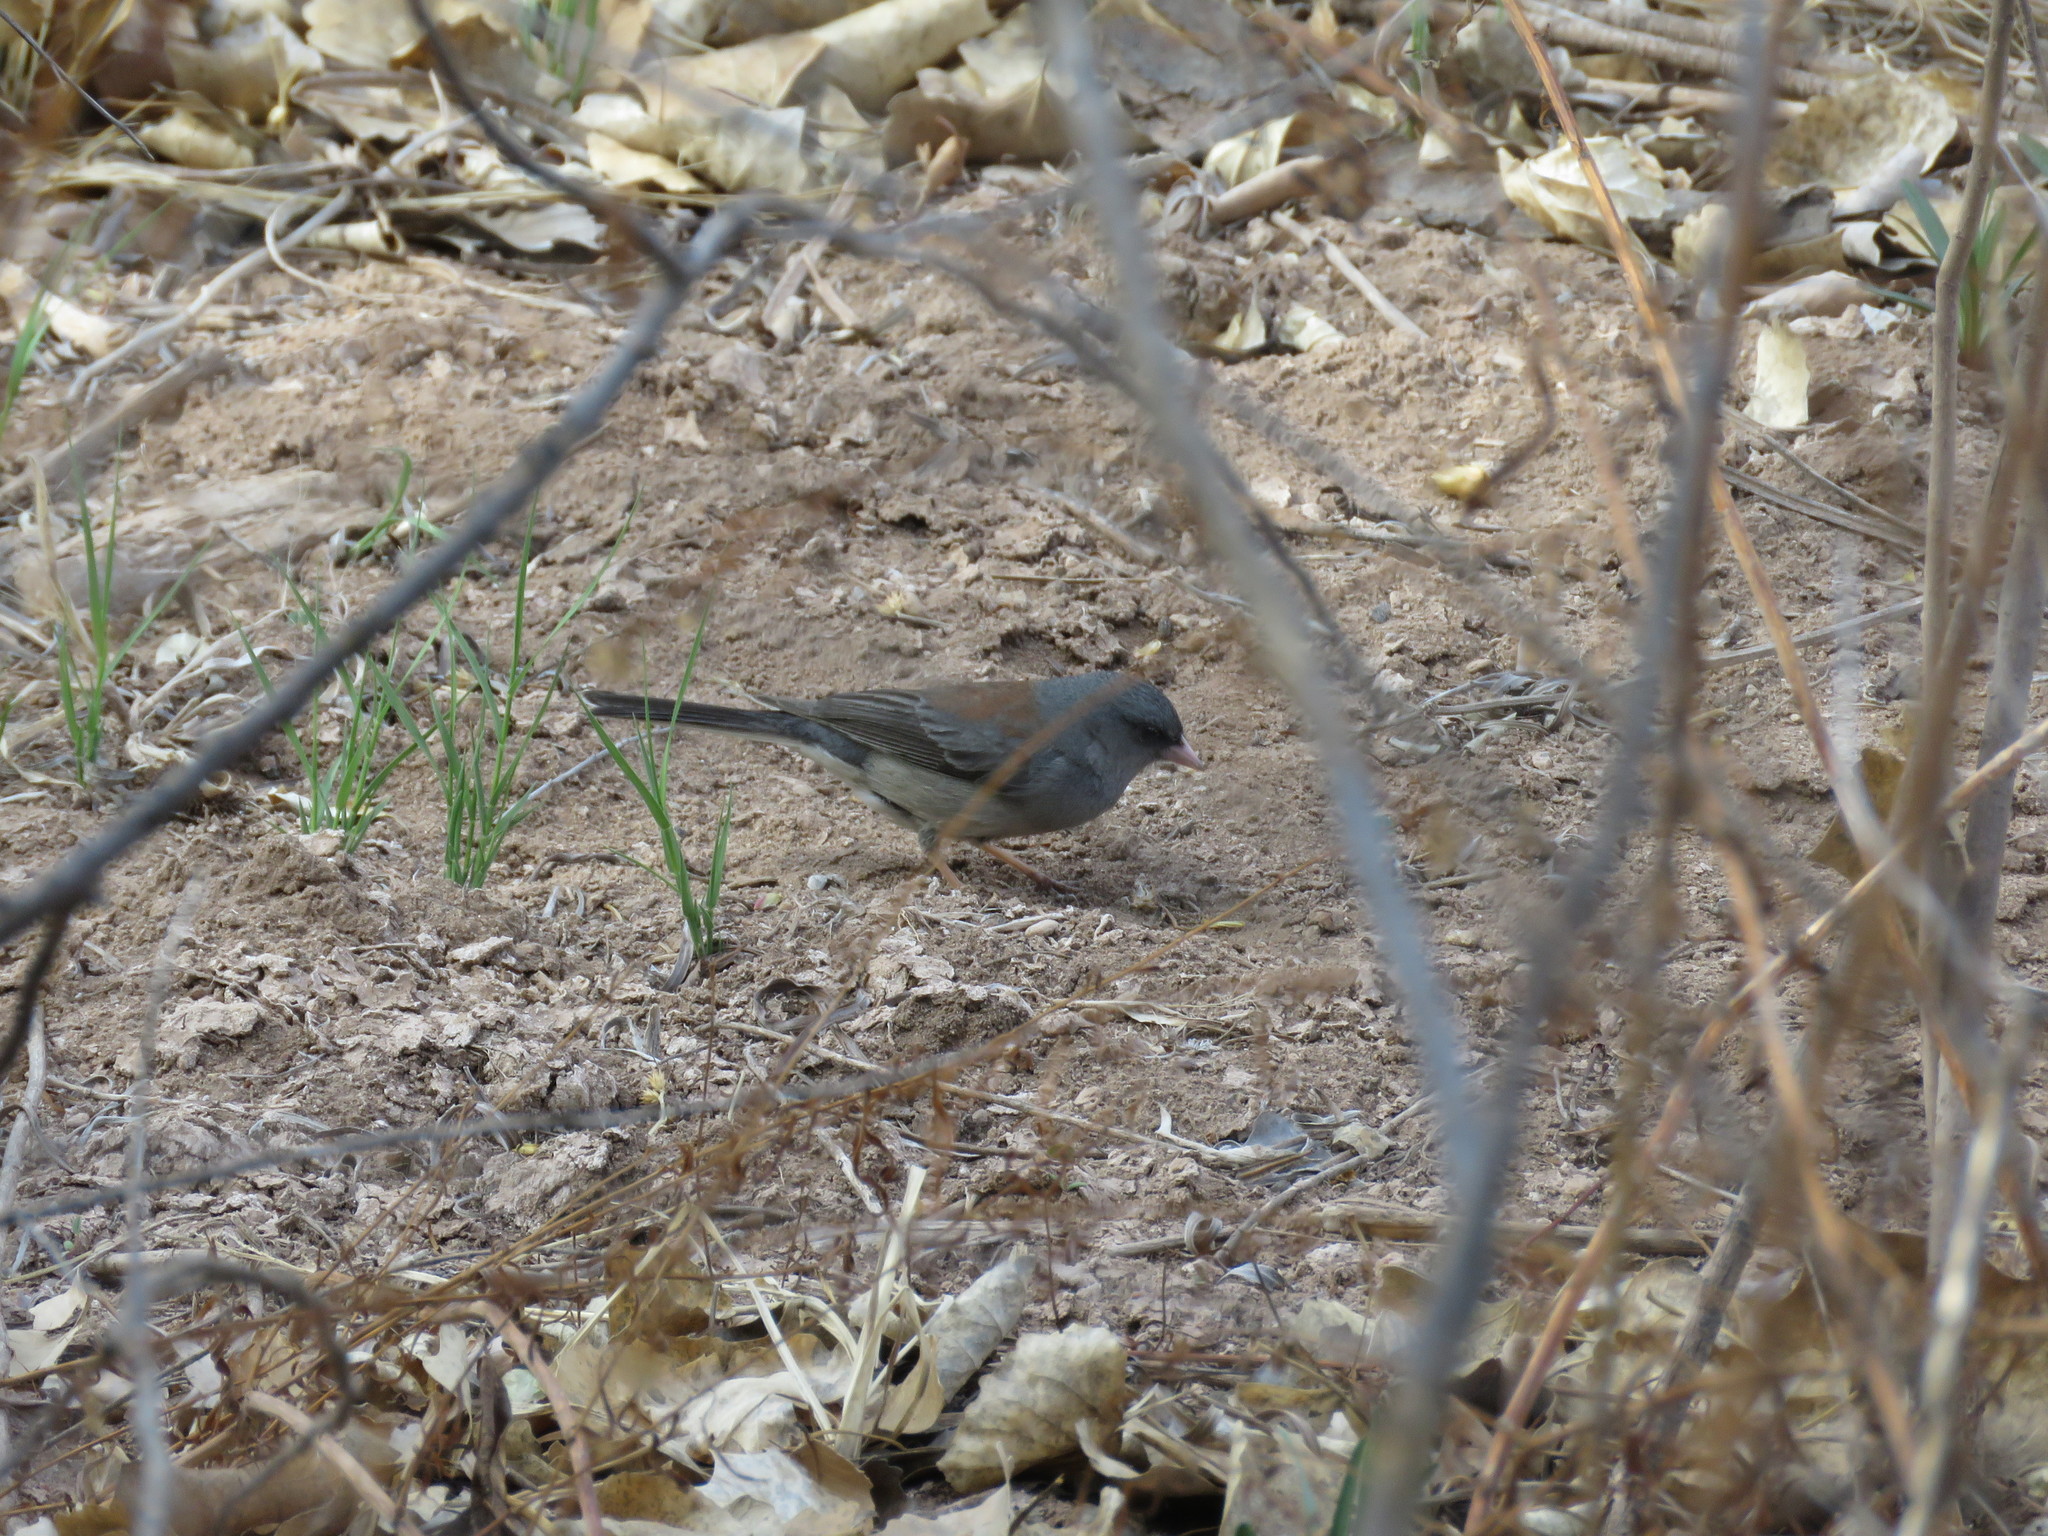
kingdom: Animalia
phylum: Chordata
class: Aves
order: Passeriformes
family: Passerellidae
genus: Junco
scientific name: Junco hyemalis
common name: Dark-eyed junco
